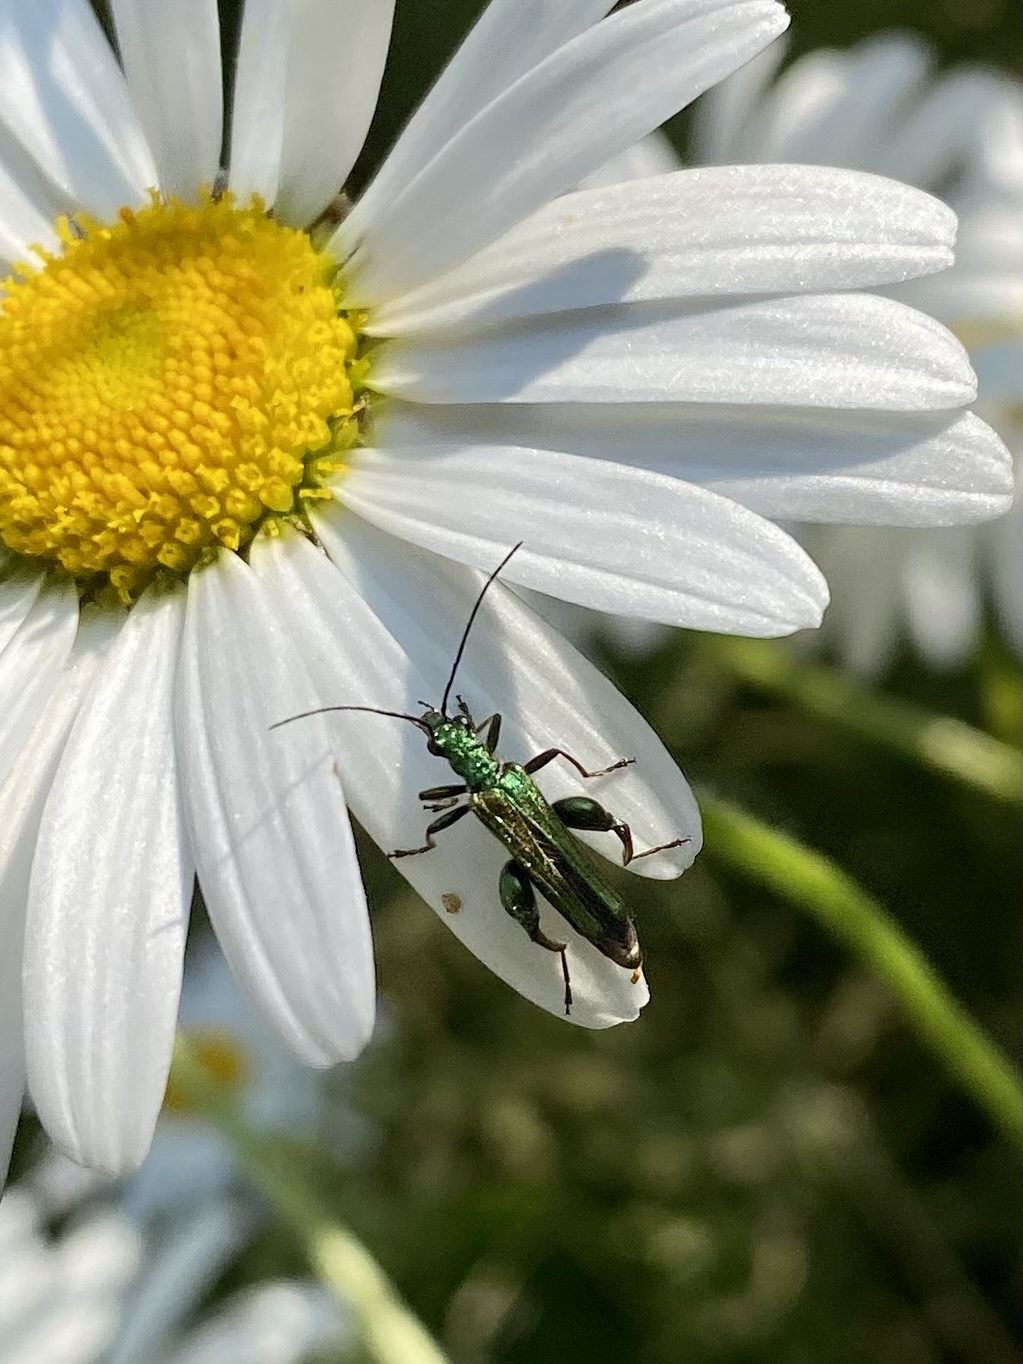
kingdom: Animalia
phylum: Arthropoda
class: Insecta
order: Coleoptera
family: Oedemeridae
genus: Oedemera
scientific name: Oedemera nobilis
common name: Swollen-thighed beetle
